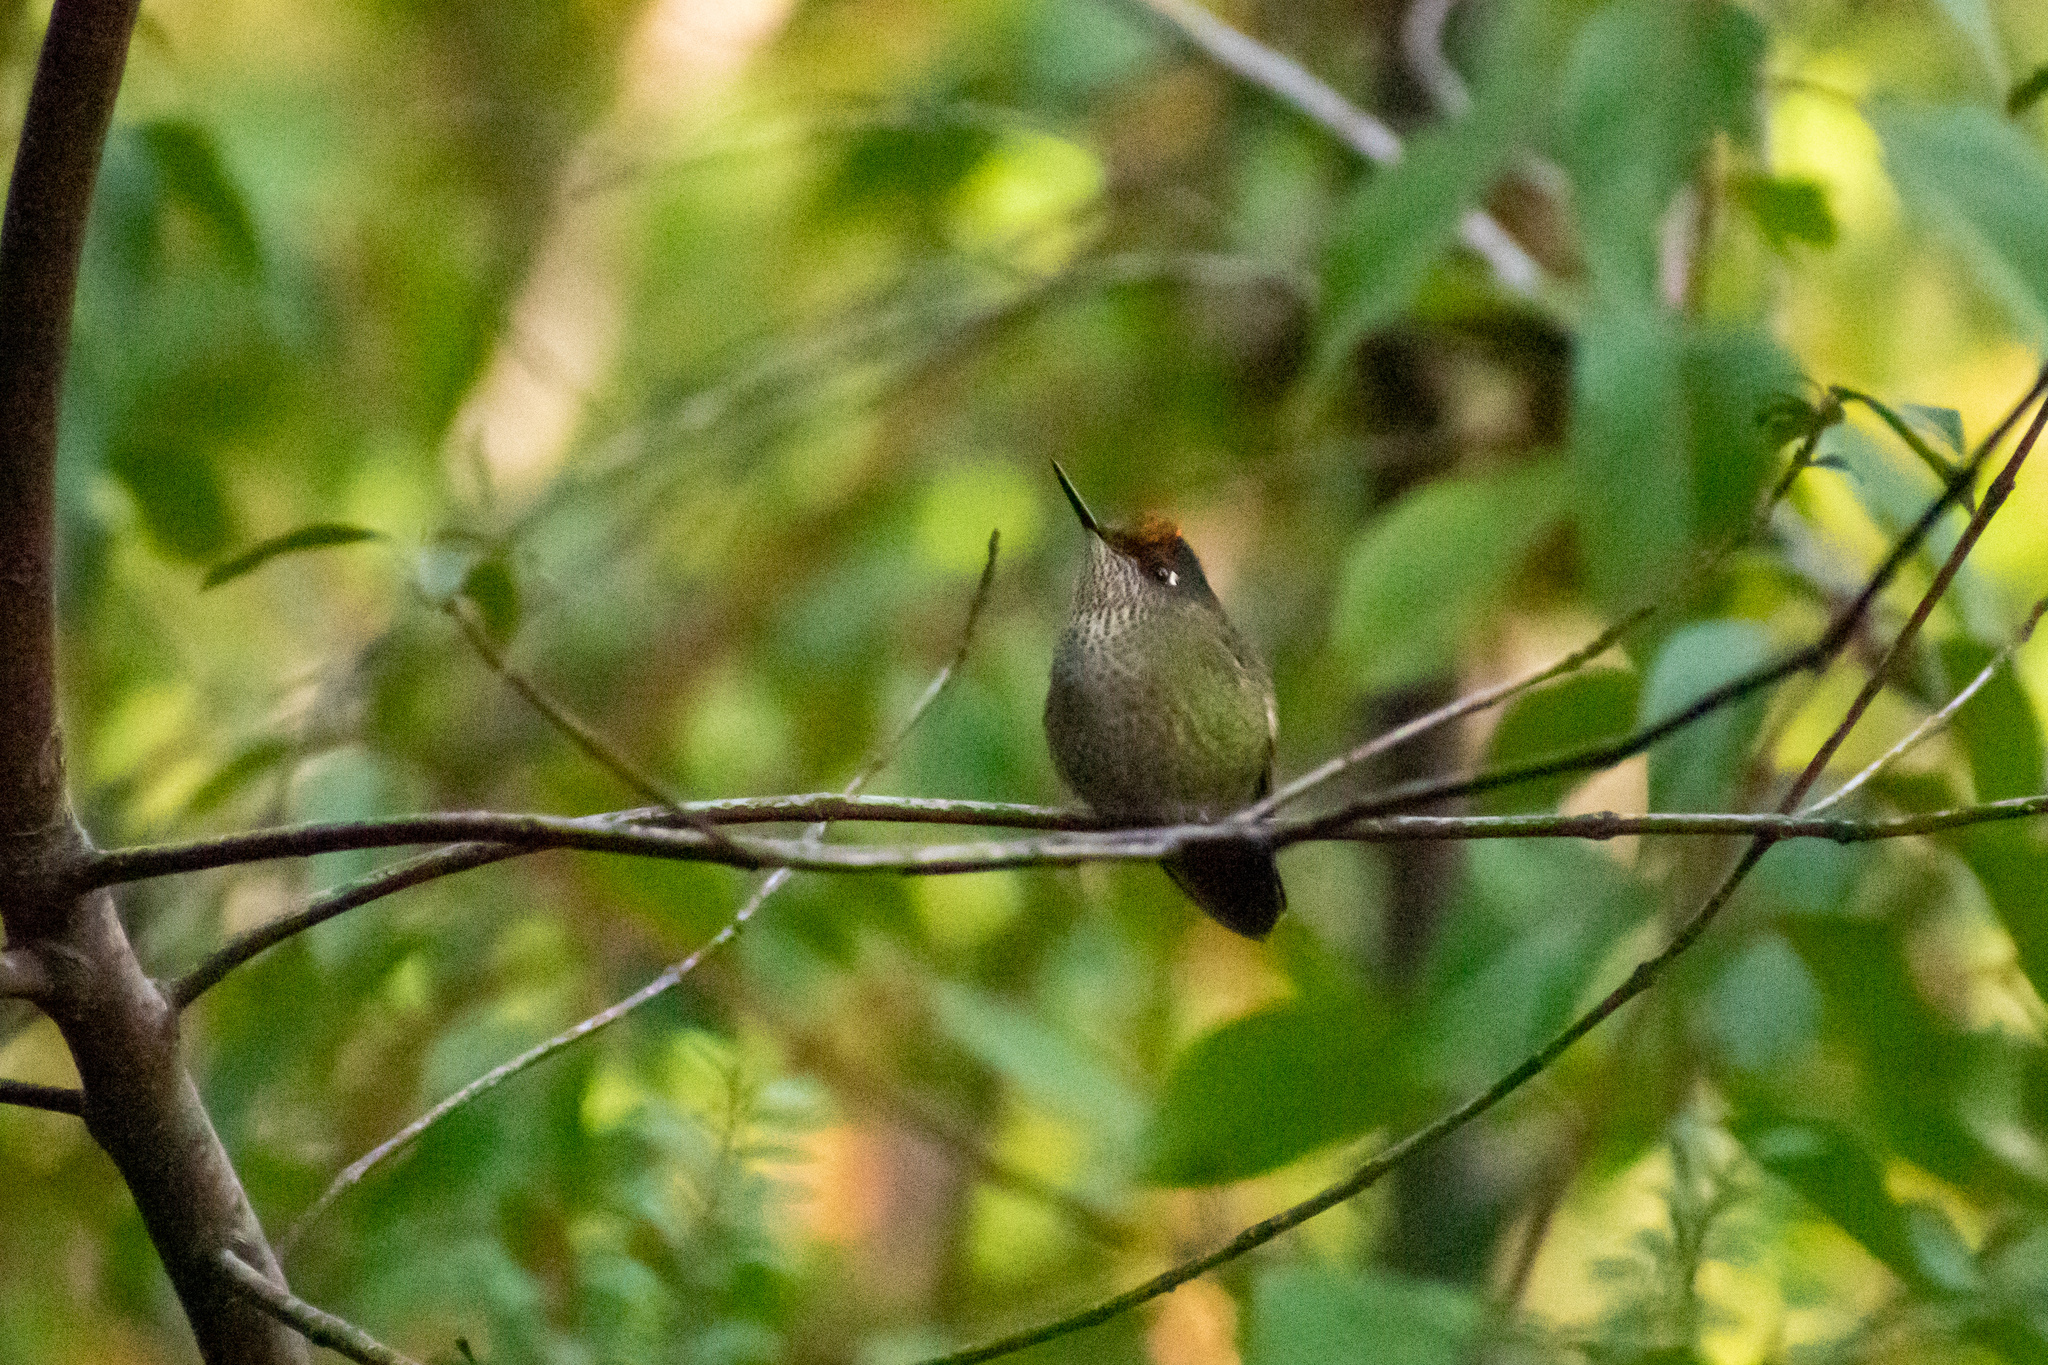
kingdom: Animalia
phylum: Chordata
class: Aves
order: Apodiformes
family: Trochilidae
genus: Sephanoides
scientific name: Sephanoides sephaniodes
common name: Green-backed firecrown
